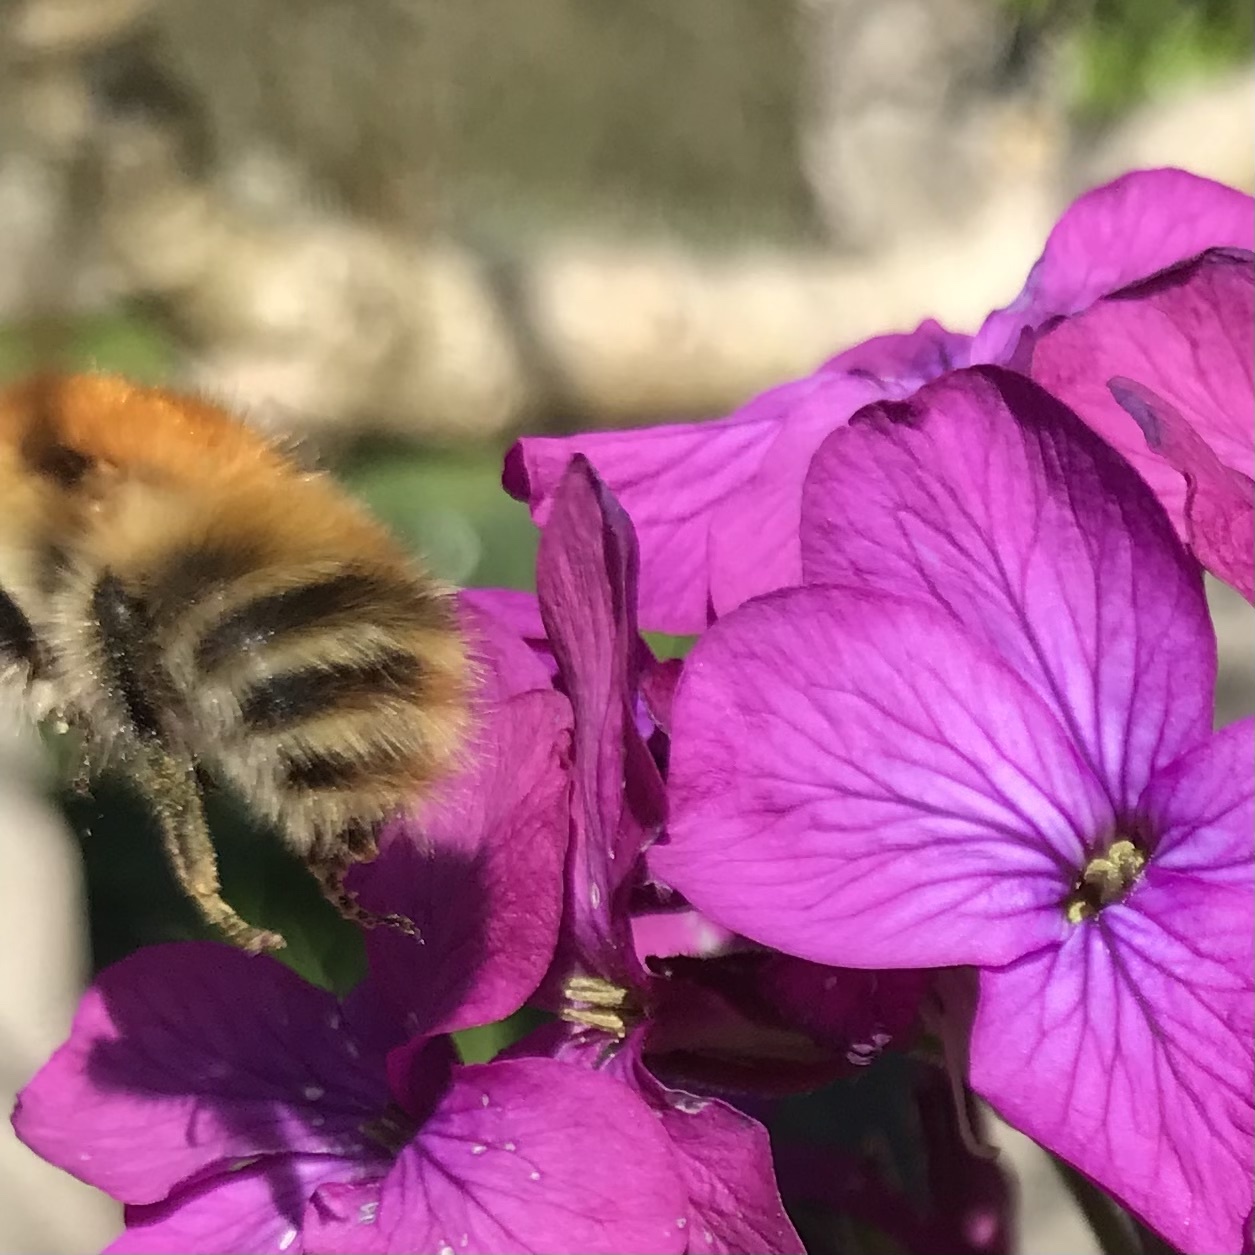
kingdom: Animalia
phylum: Arthropoda
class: Insecta
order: Hymenoptera
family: Apidae
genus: Bombus
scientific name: Bombus pascuorum
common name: Common carder bee
